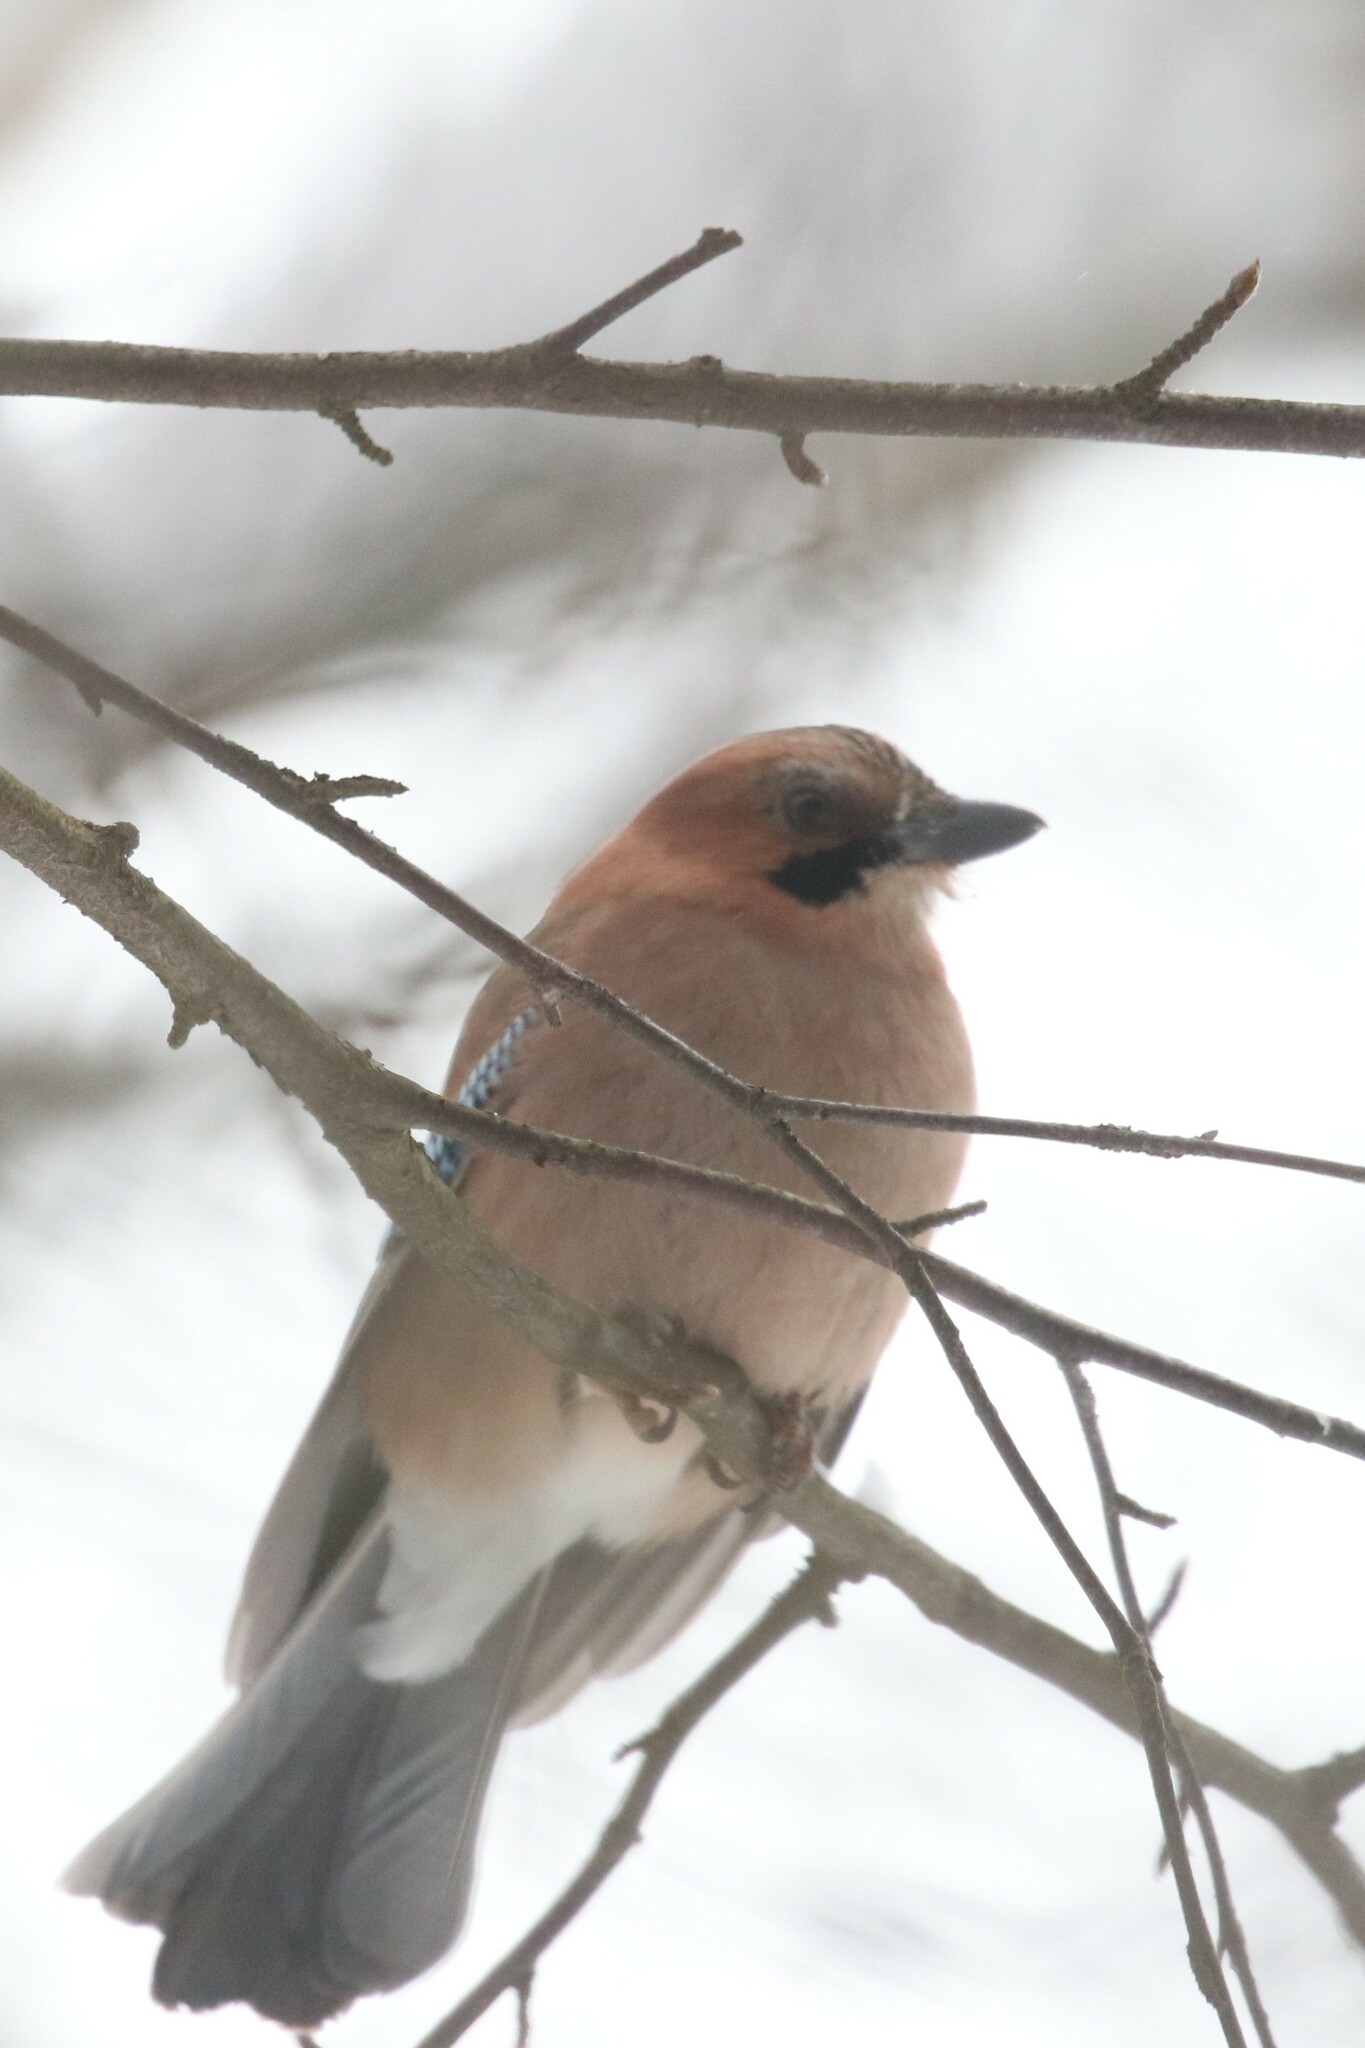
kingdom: Animalia
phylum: Chordata
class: Aves
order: Passeriformes
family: Corvidae
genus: Garrulus
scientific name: Garrulus glandarius
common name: Eurasian jay
